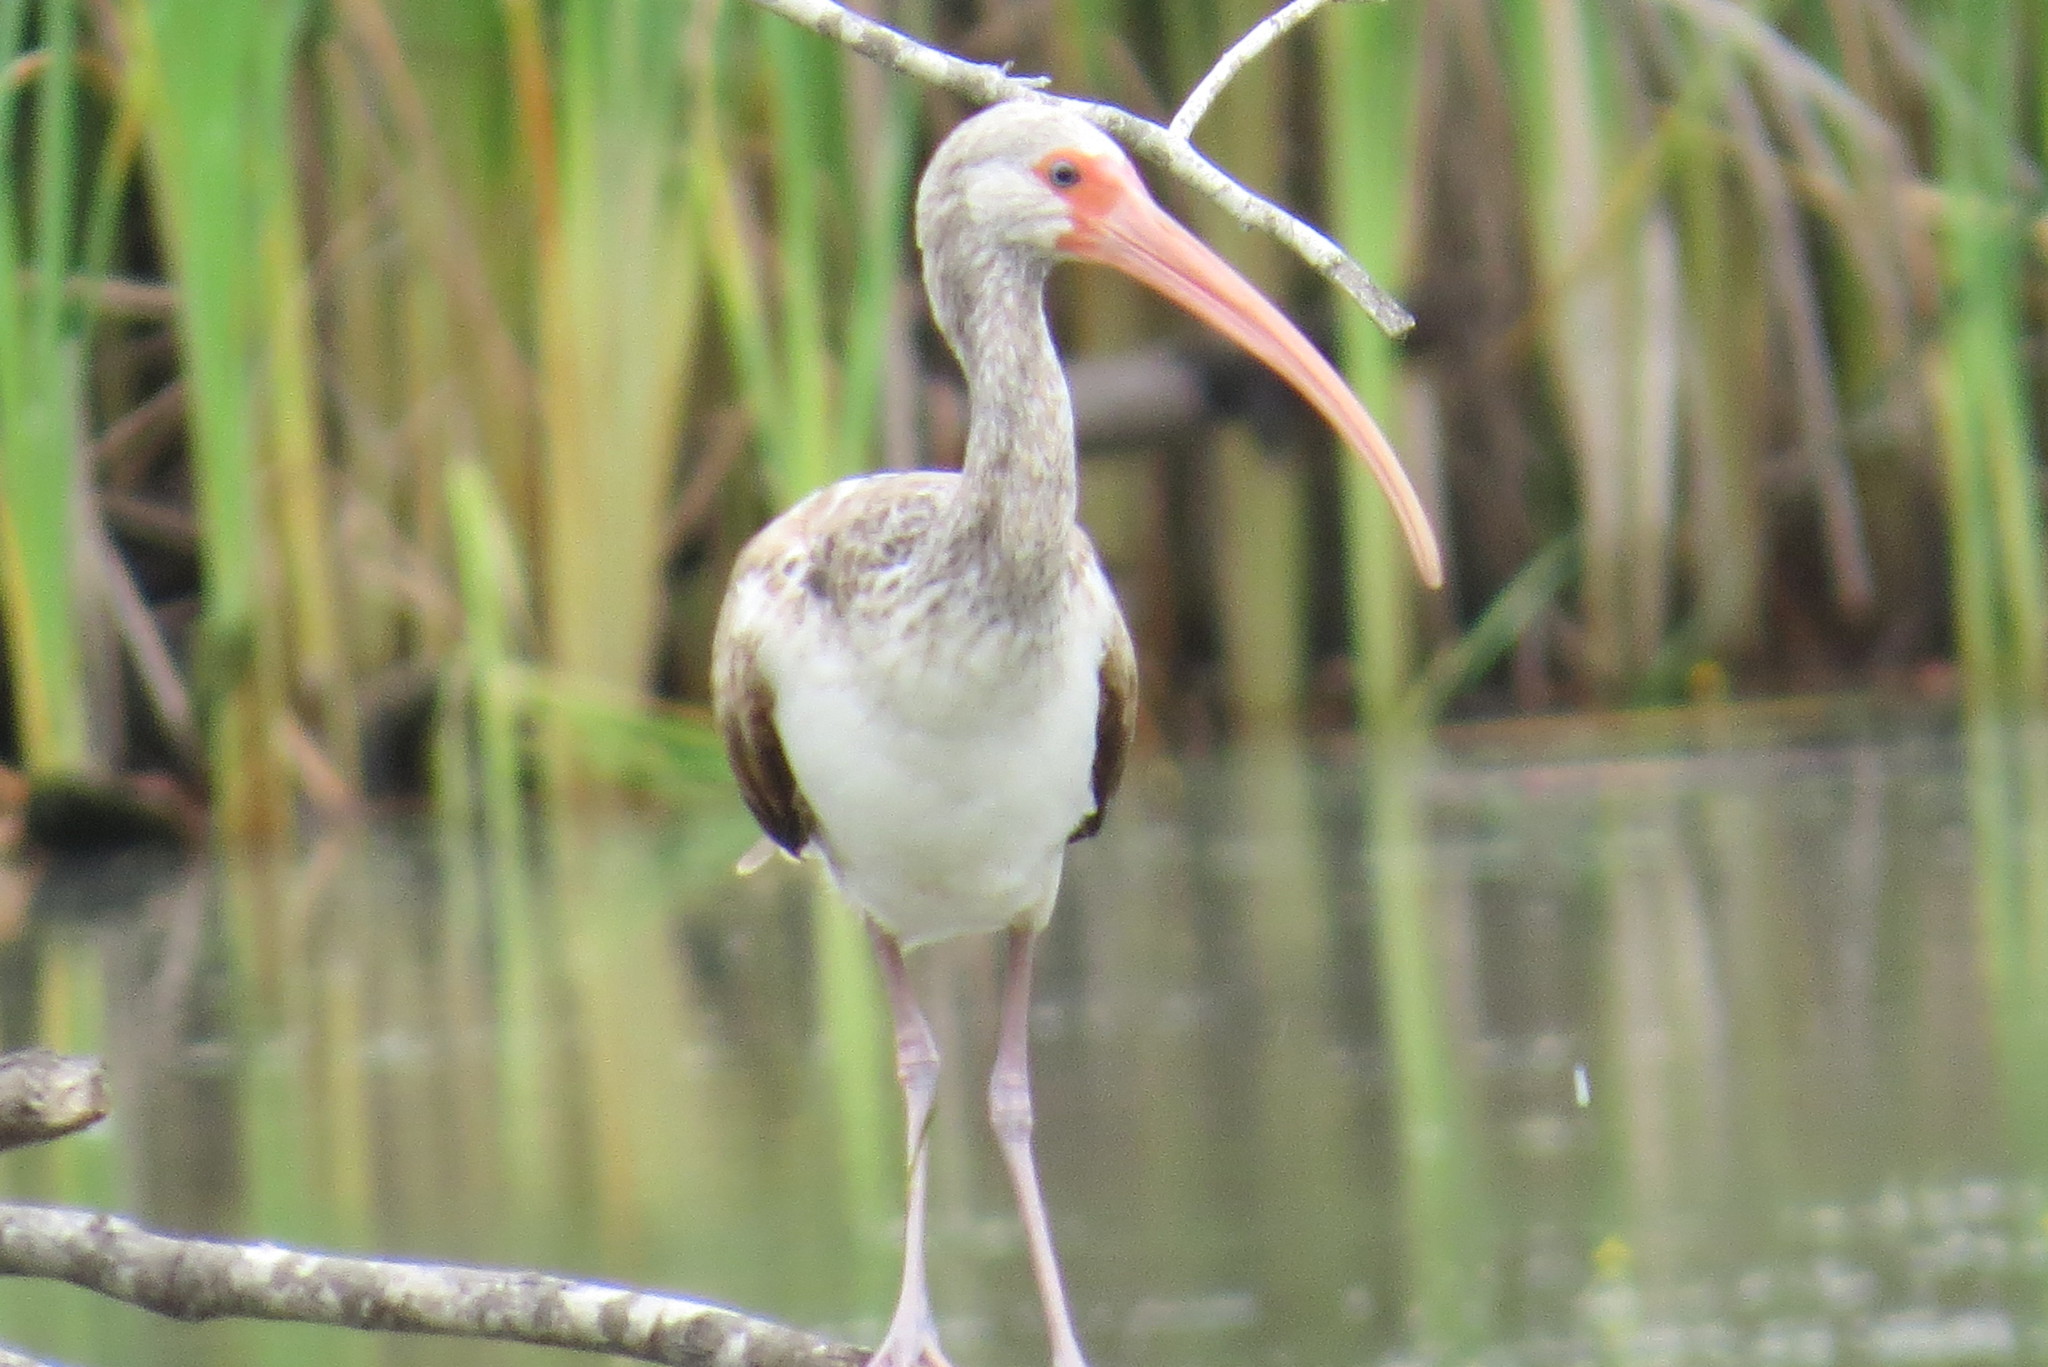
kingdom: Animalia
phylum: Chordata
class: Aves
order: Pelecaniformes
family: Threskiornithidae
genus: Eudocimus
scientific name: Eudocimus albus
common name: White ibis
